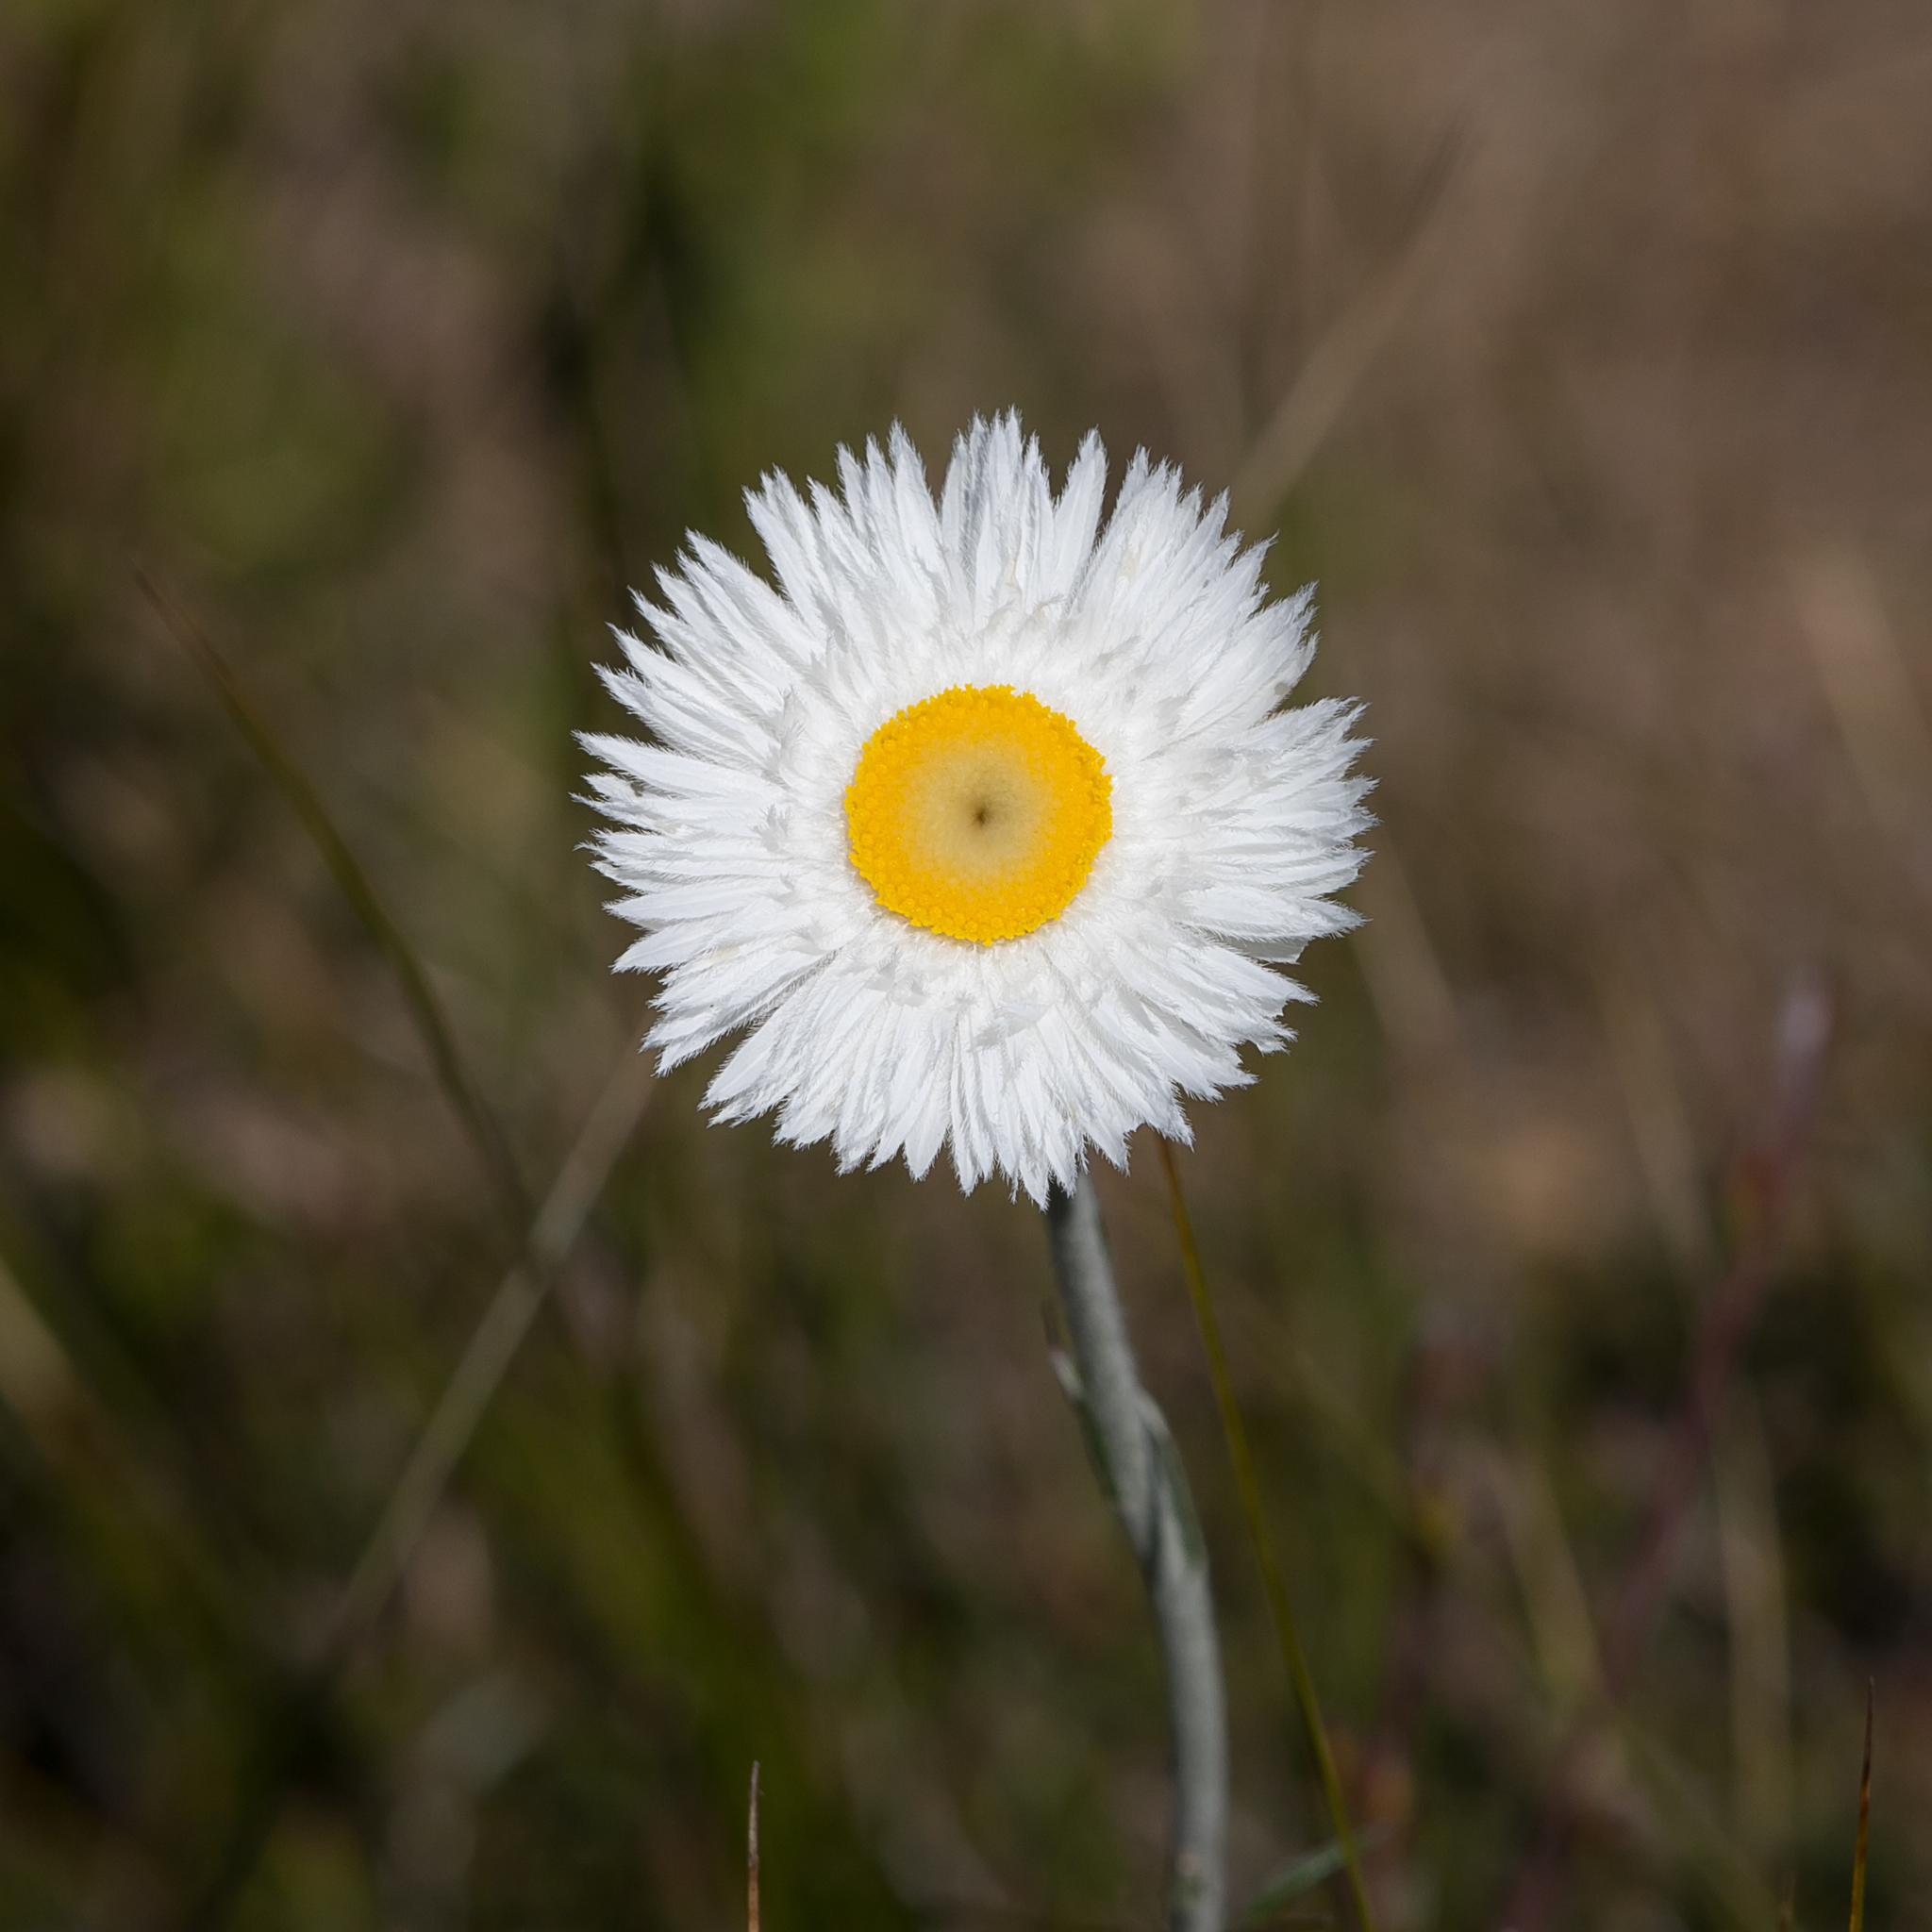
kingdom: Plantae
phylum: Tracheophyta
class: Magnoliopsida
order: Asterales
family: Asteraceae
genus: Chrysocephalum
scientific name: Chrysocephalum baxteri
